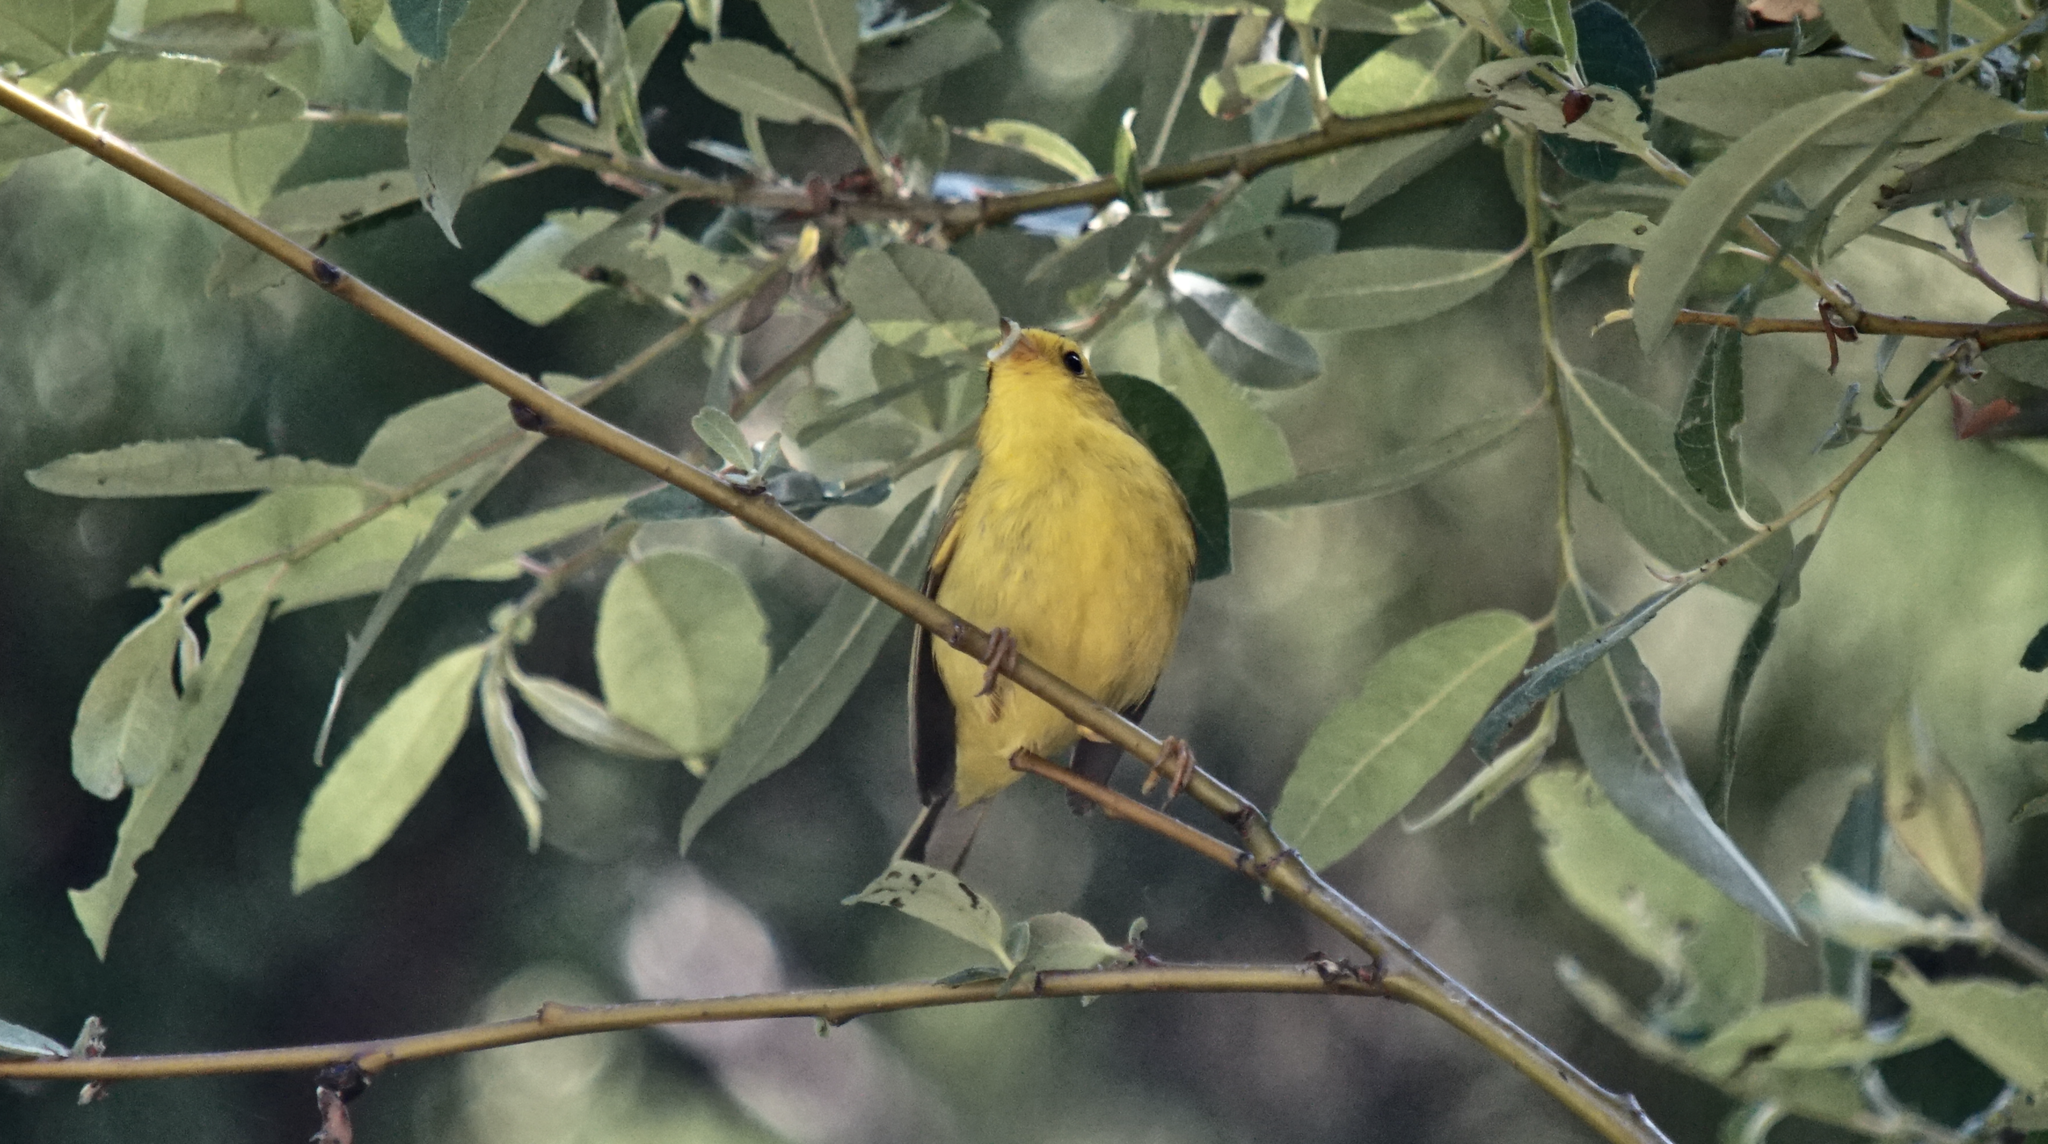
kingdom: Animalia
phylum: Chordata
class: Aves
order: Passeriformes
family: Parulidae
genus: Cardellina
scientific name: Cardellina pusilla
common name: Wilson's warbler
